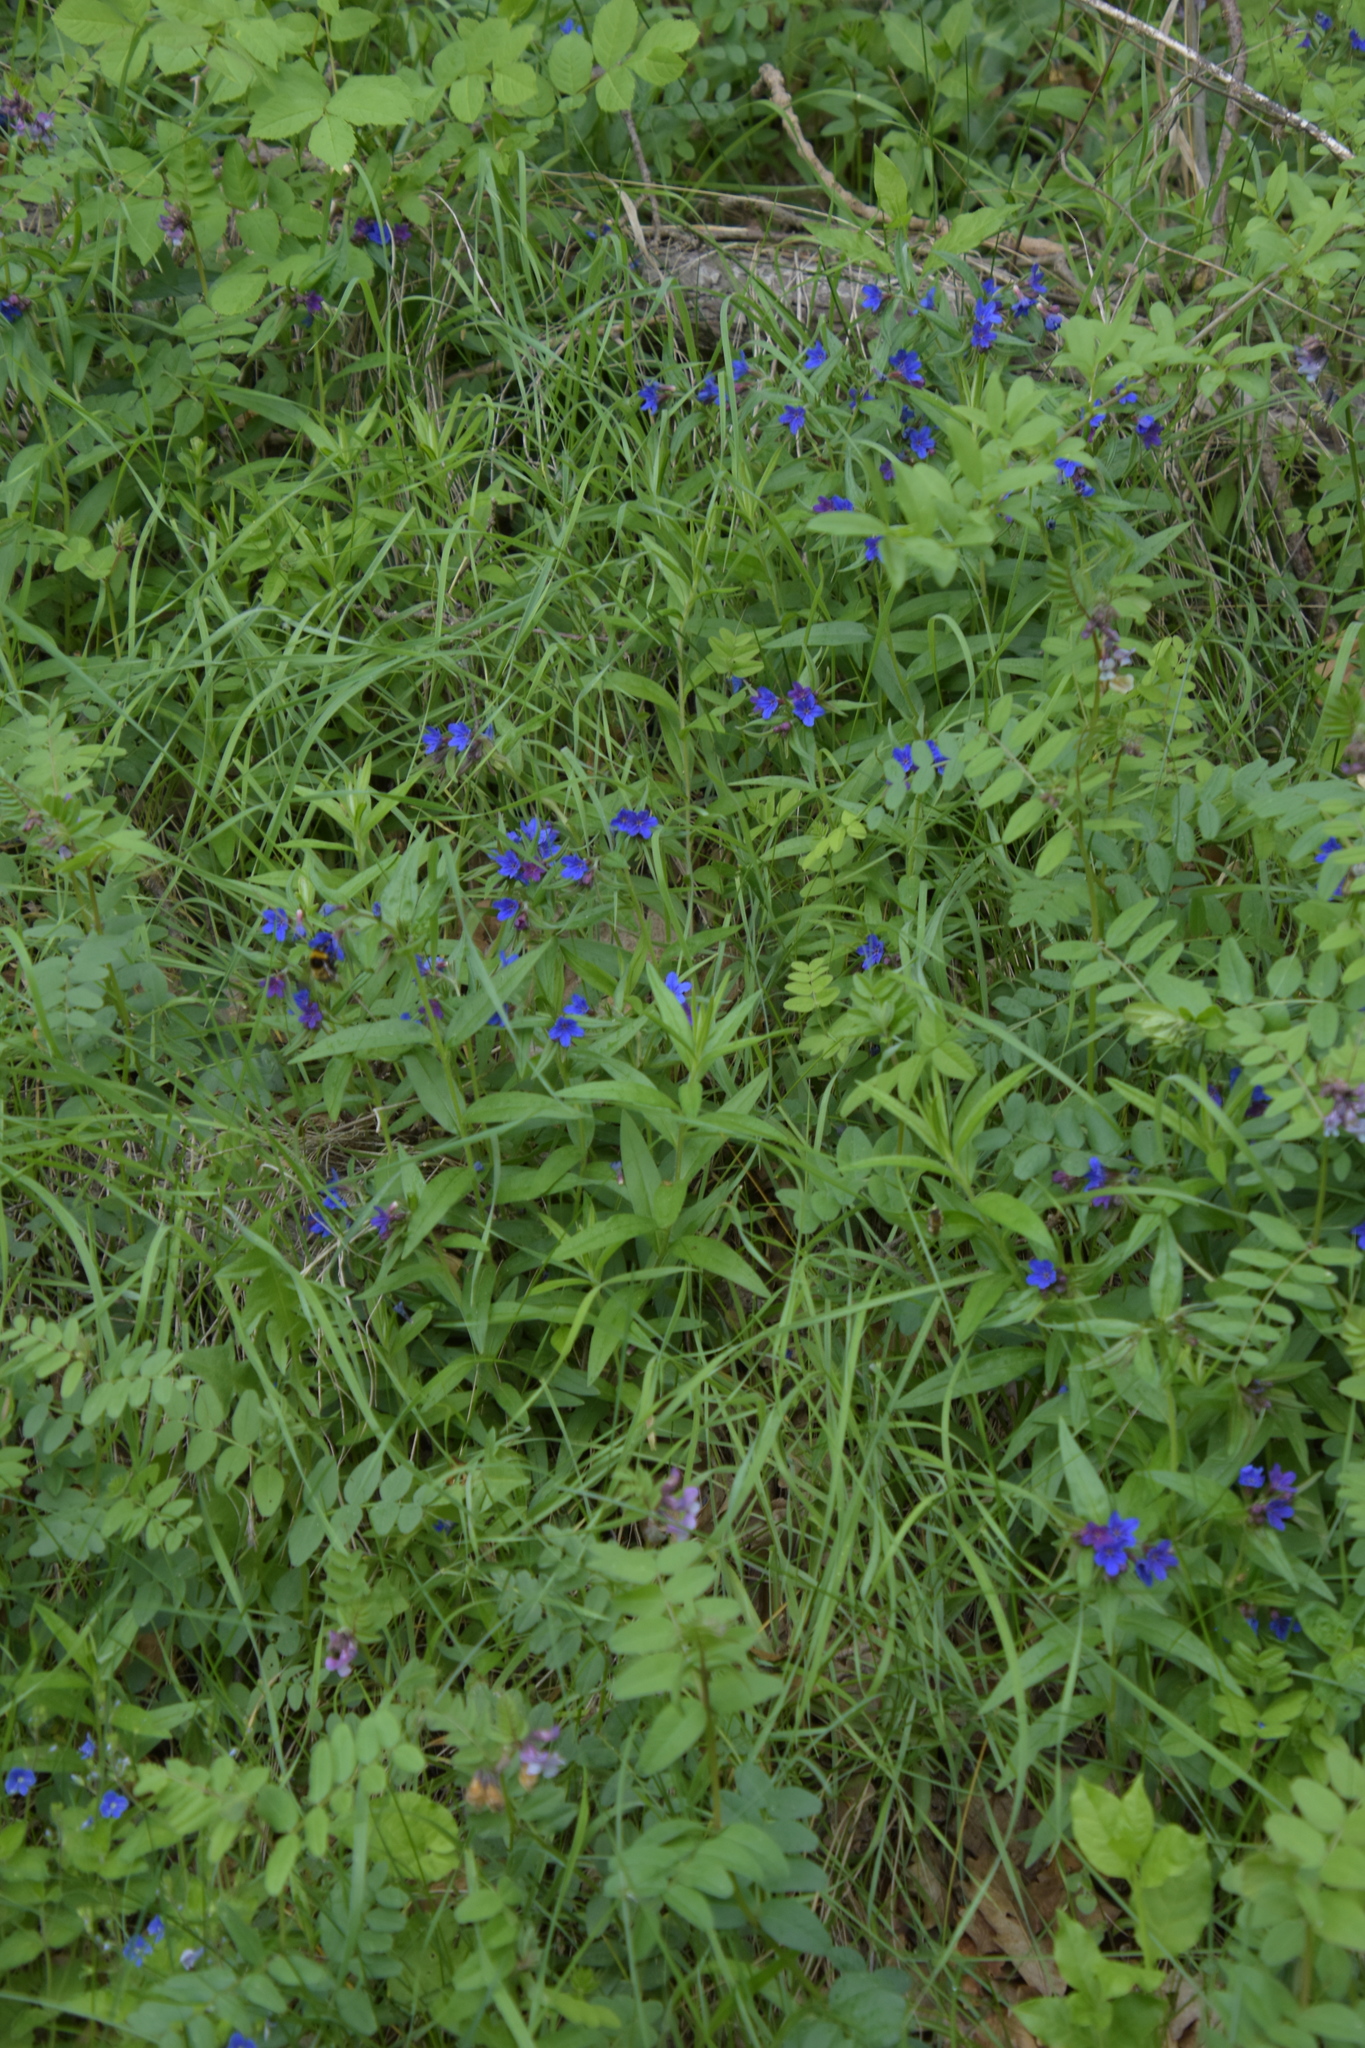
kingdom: Plantae
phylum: Tracheophyta
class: Magnoliopsida
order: Boraginales
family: Boraginaceae
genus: Aegonychon
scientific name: Aegonychon purpurocaeruleum
